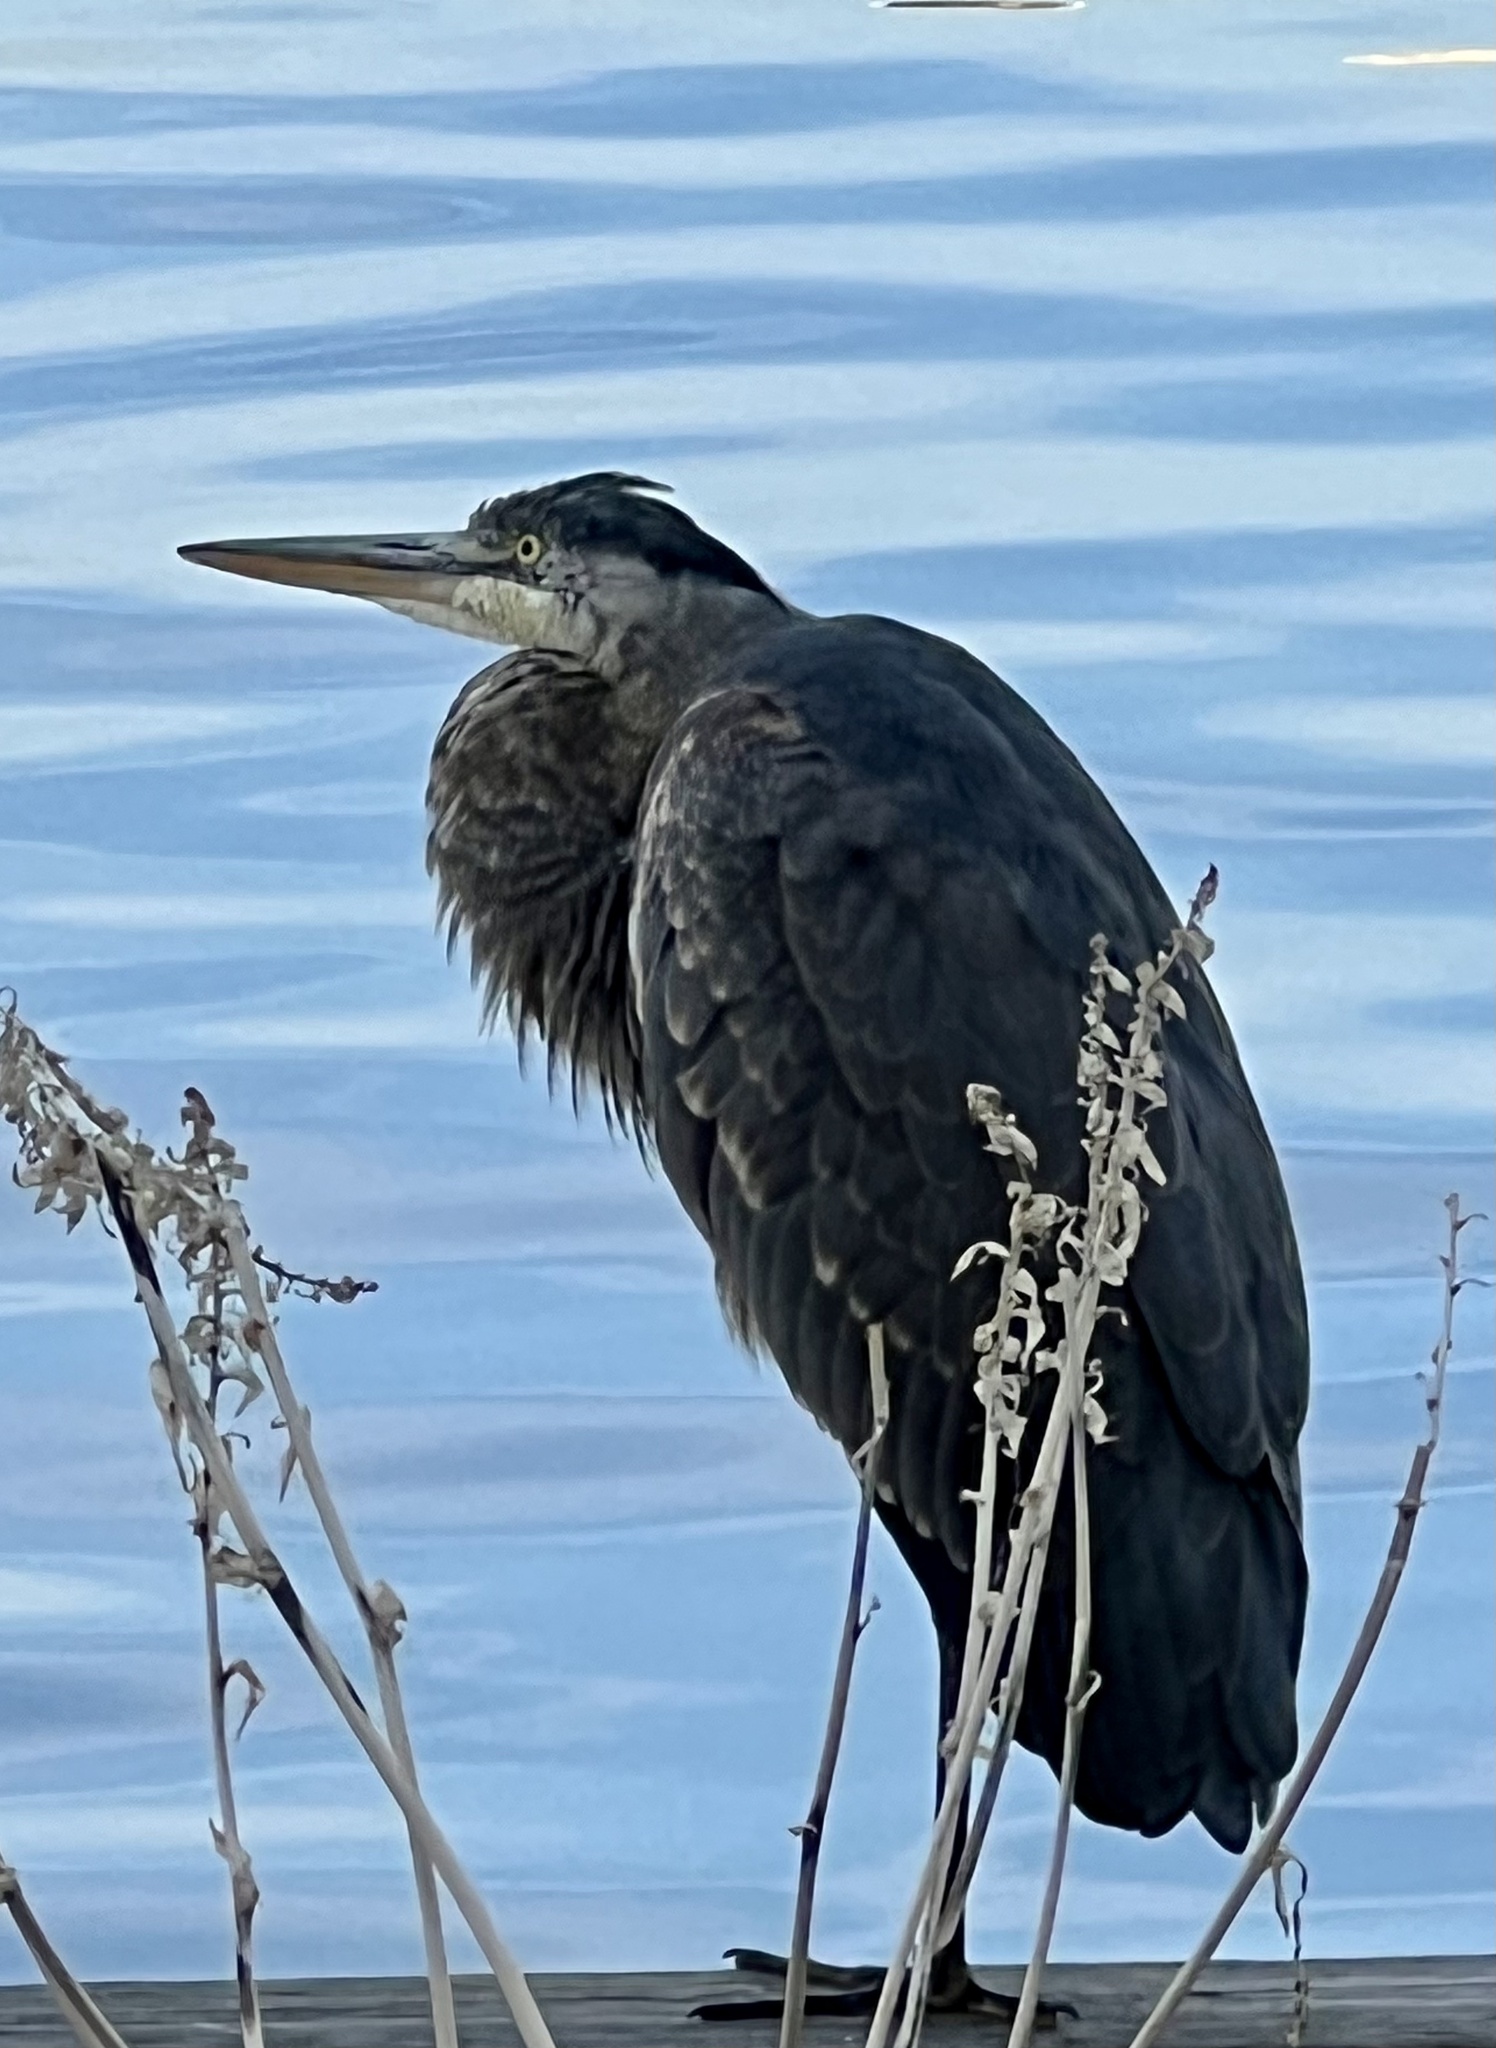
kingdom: Animalia
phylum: Chordata
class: Aves
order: Pelecaniformes
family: Ardeidae
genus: Ardea
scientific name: Ardea herodias
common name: Great blue heron
